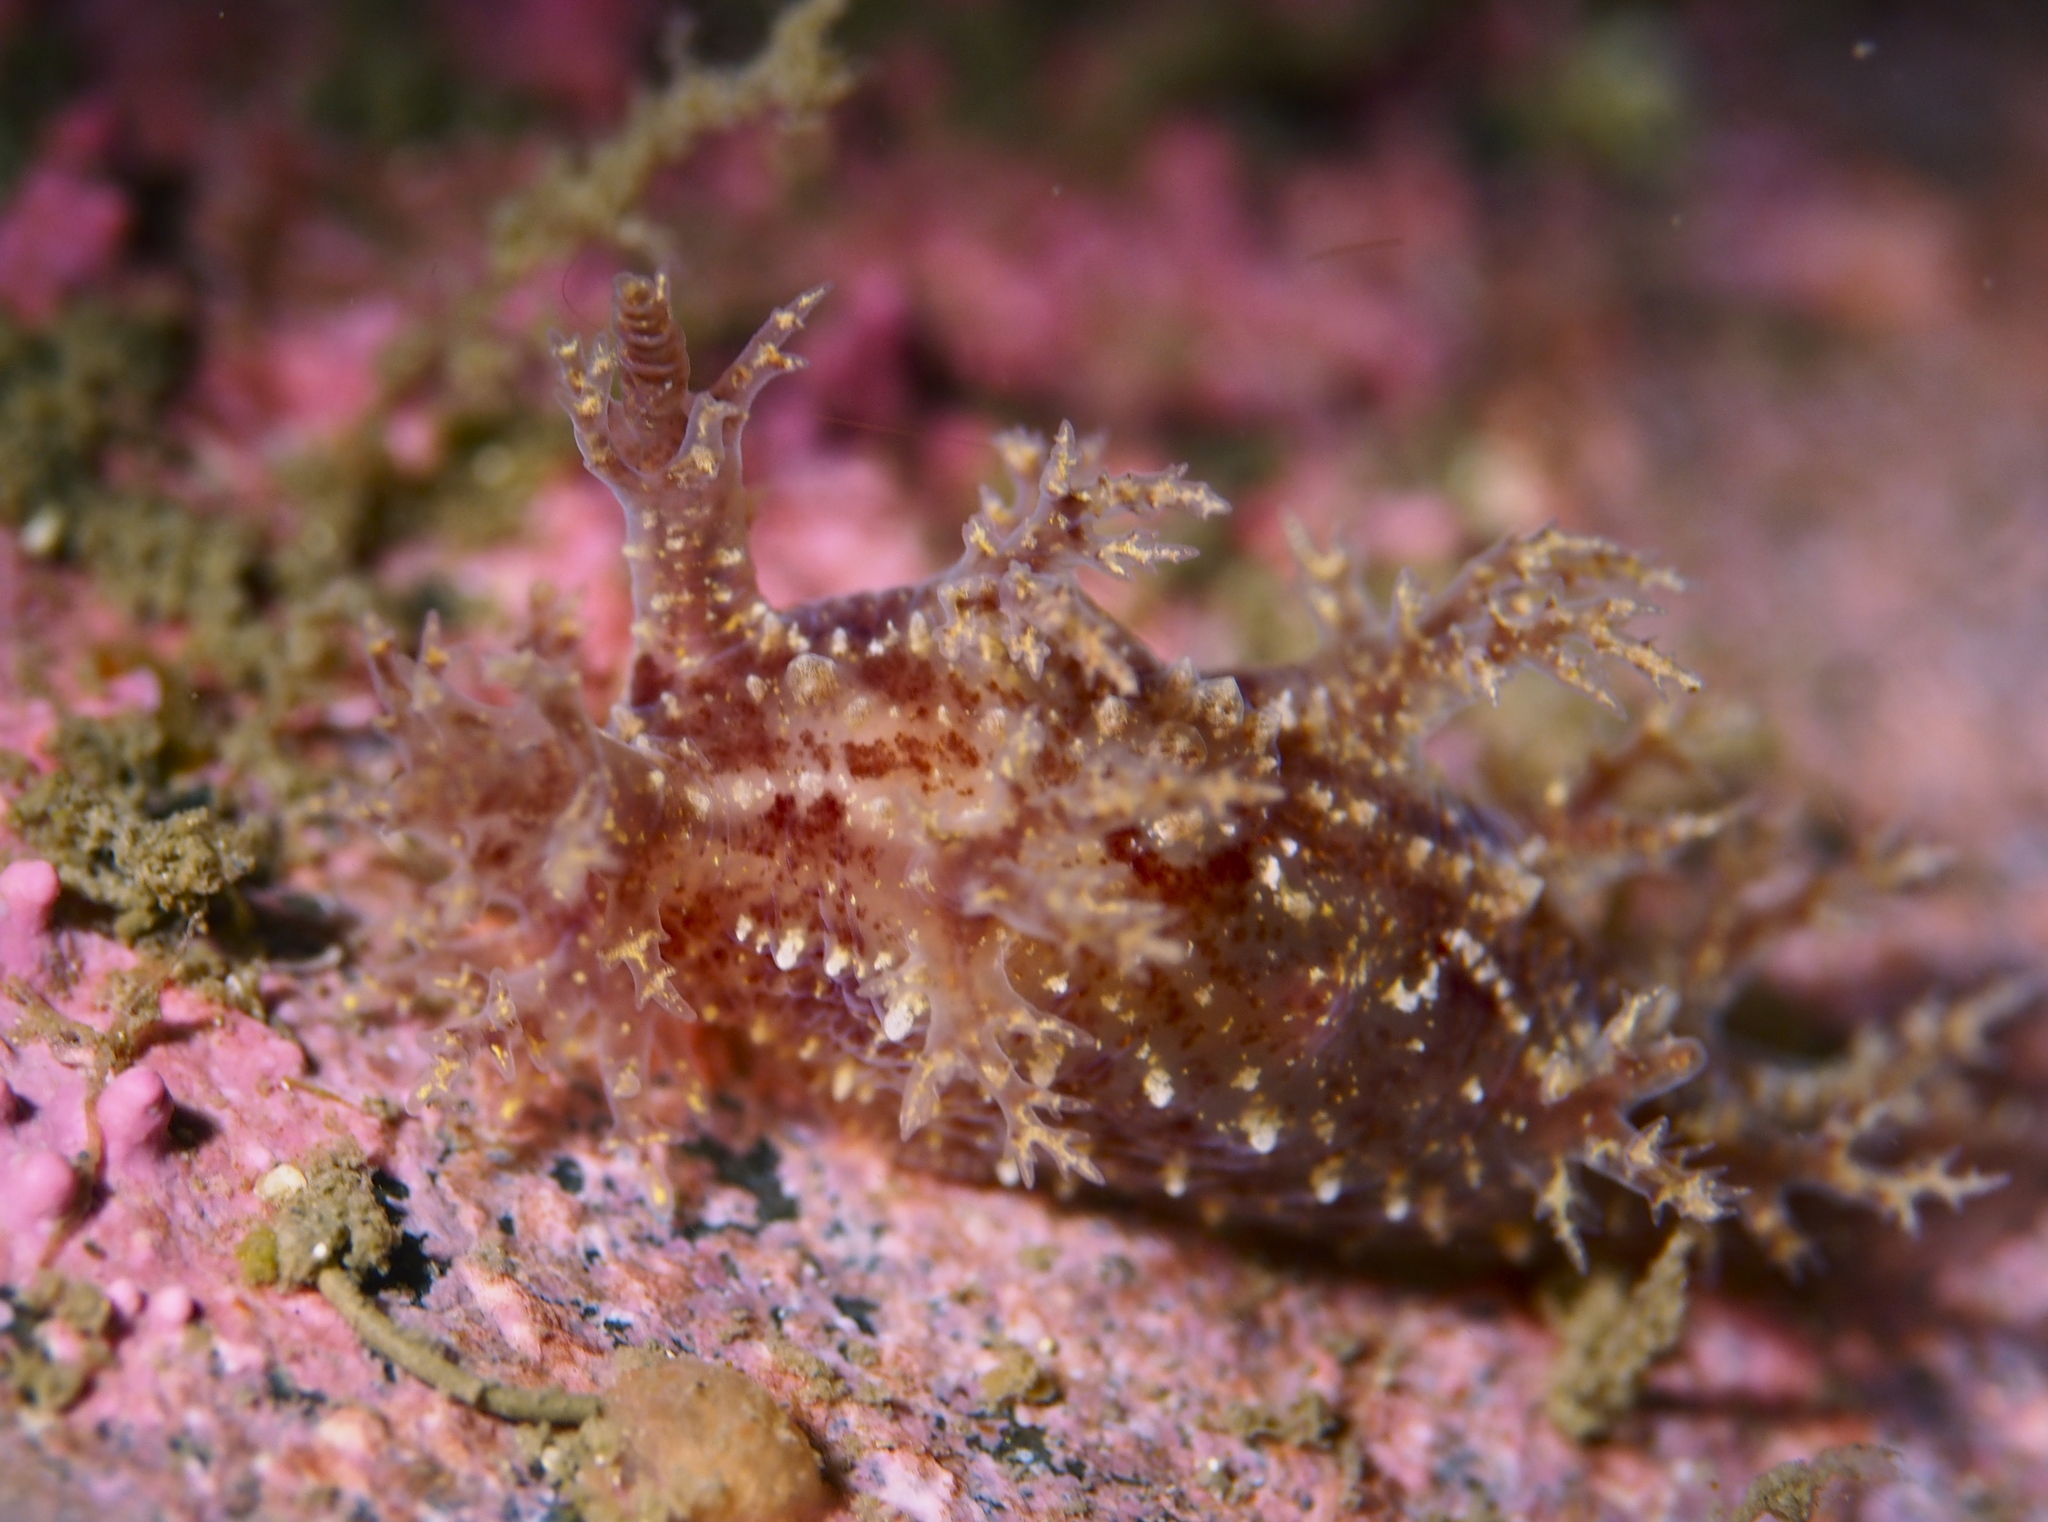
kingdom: Animalia
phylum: Mollusca
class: Gastropoda
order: Nudibranchia
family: Dendronotidae
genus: Dendronotus
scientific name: Dendronotus frondosus
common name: Bushy-backed nudibranch
